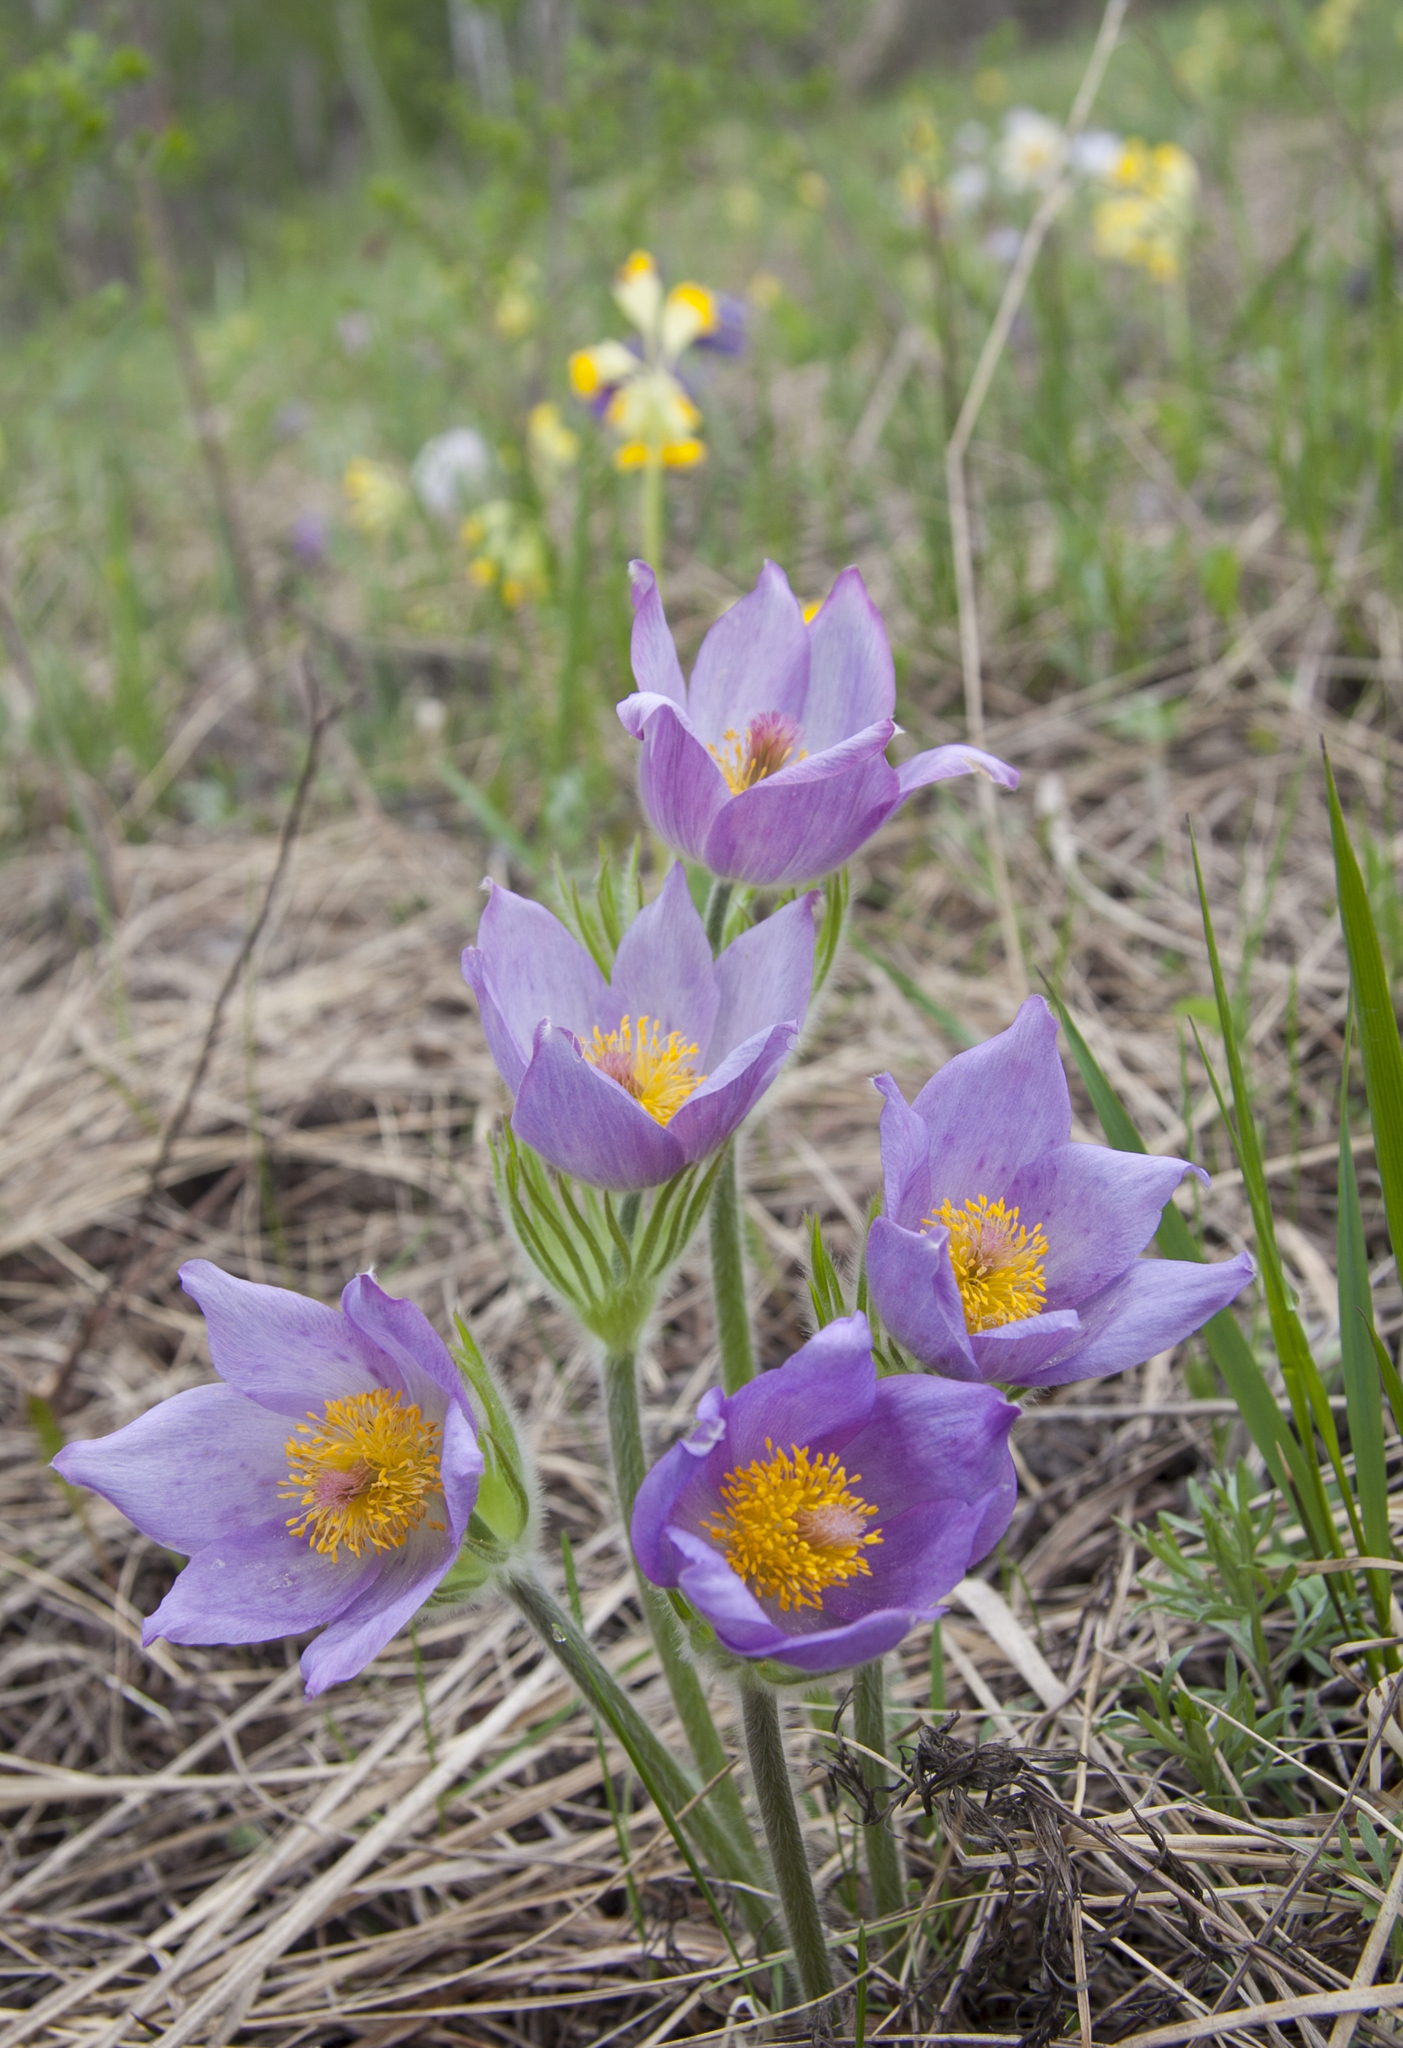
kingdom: Plantae
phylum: Tracheophyta
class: Magnoliopsida
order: Ranunculales
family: Ranunculaceae
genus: Pulsatilla
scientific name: Pulsatilla patens
